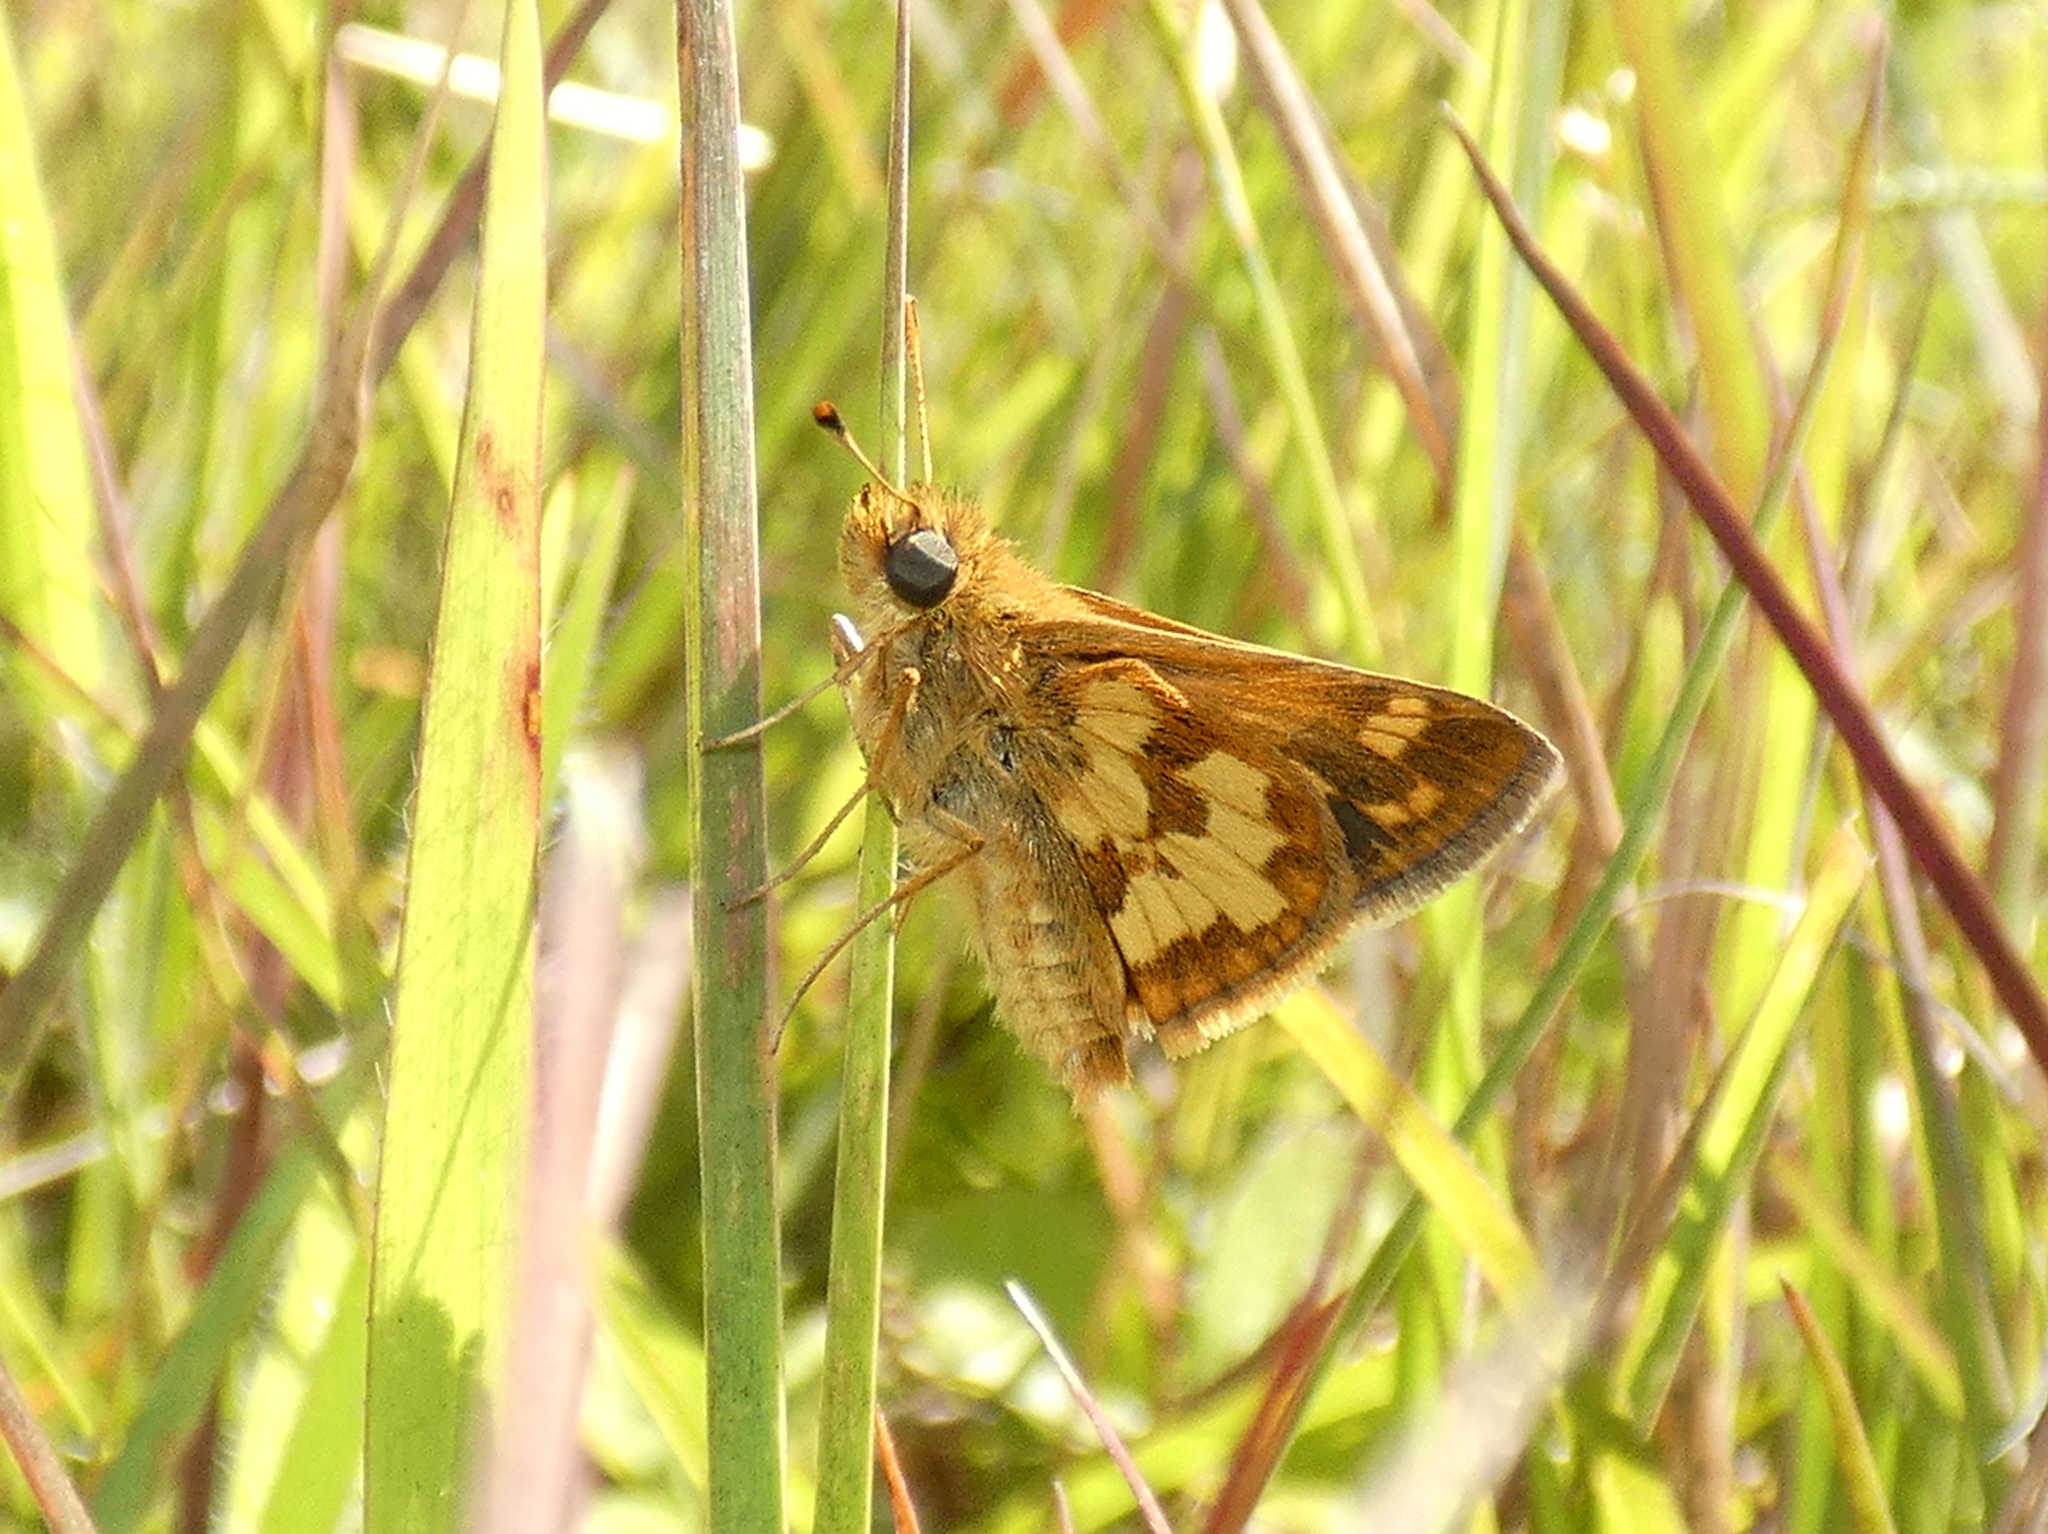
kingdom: Animalia
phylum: Arthropoda
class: Insecta
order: Lepidoptera
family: Hesperiidae
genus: Polites
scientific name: Polites coras
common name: Peck's skipper
